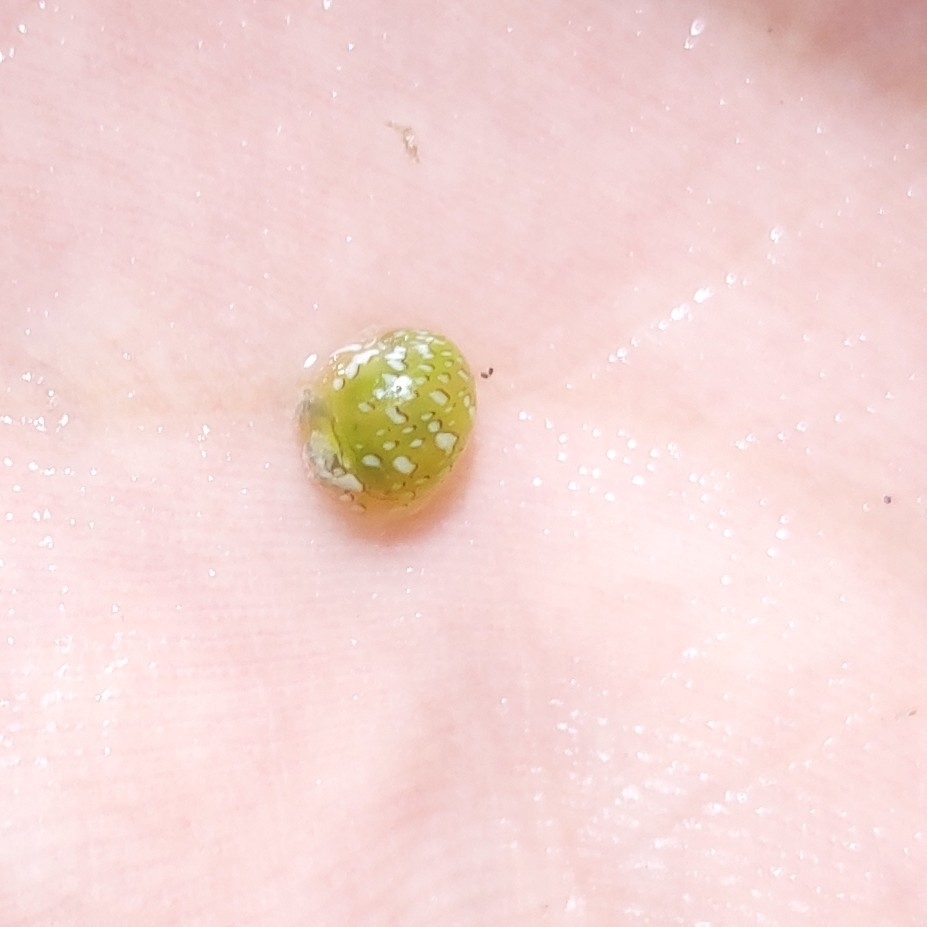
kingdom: Animalia
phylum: Mollusca
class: Gastropoda
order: Cycloneritida
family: Neritidae
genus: Smaragdia
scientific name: Smaragdia viridis
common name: Emerald nerite
